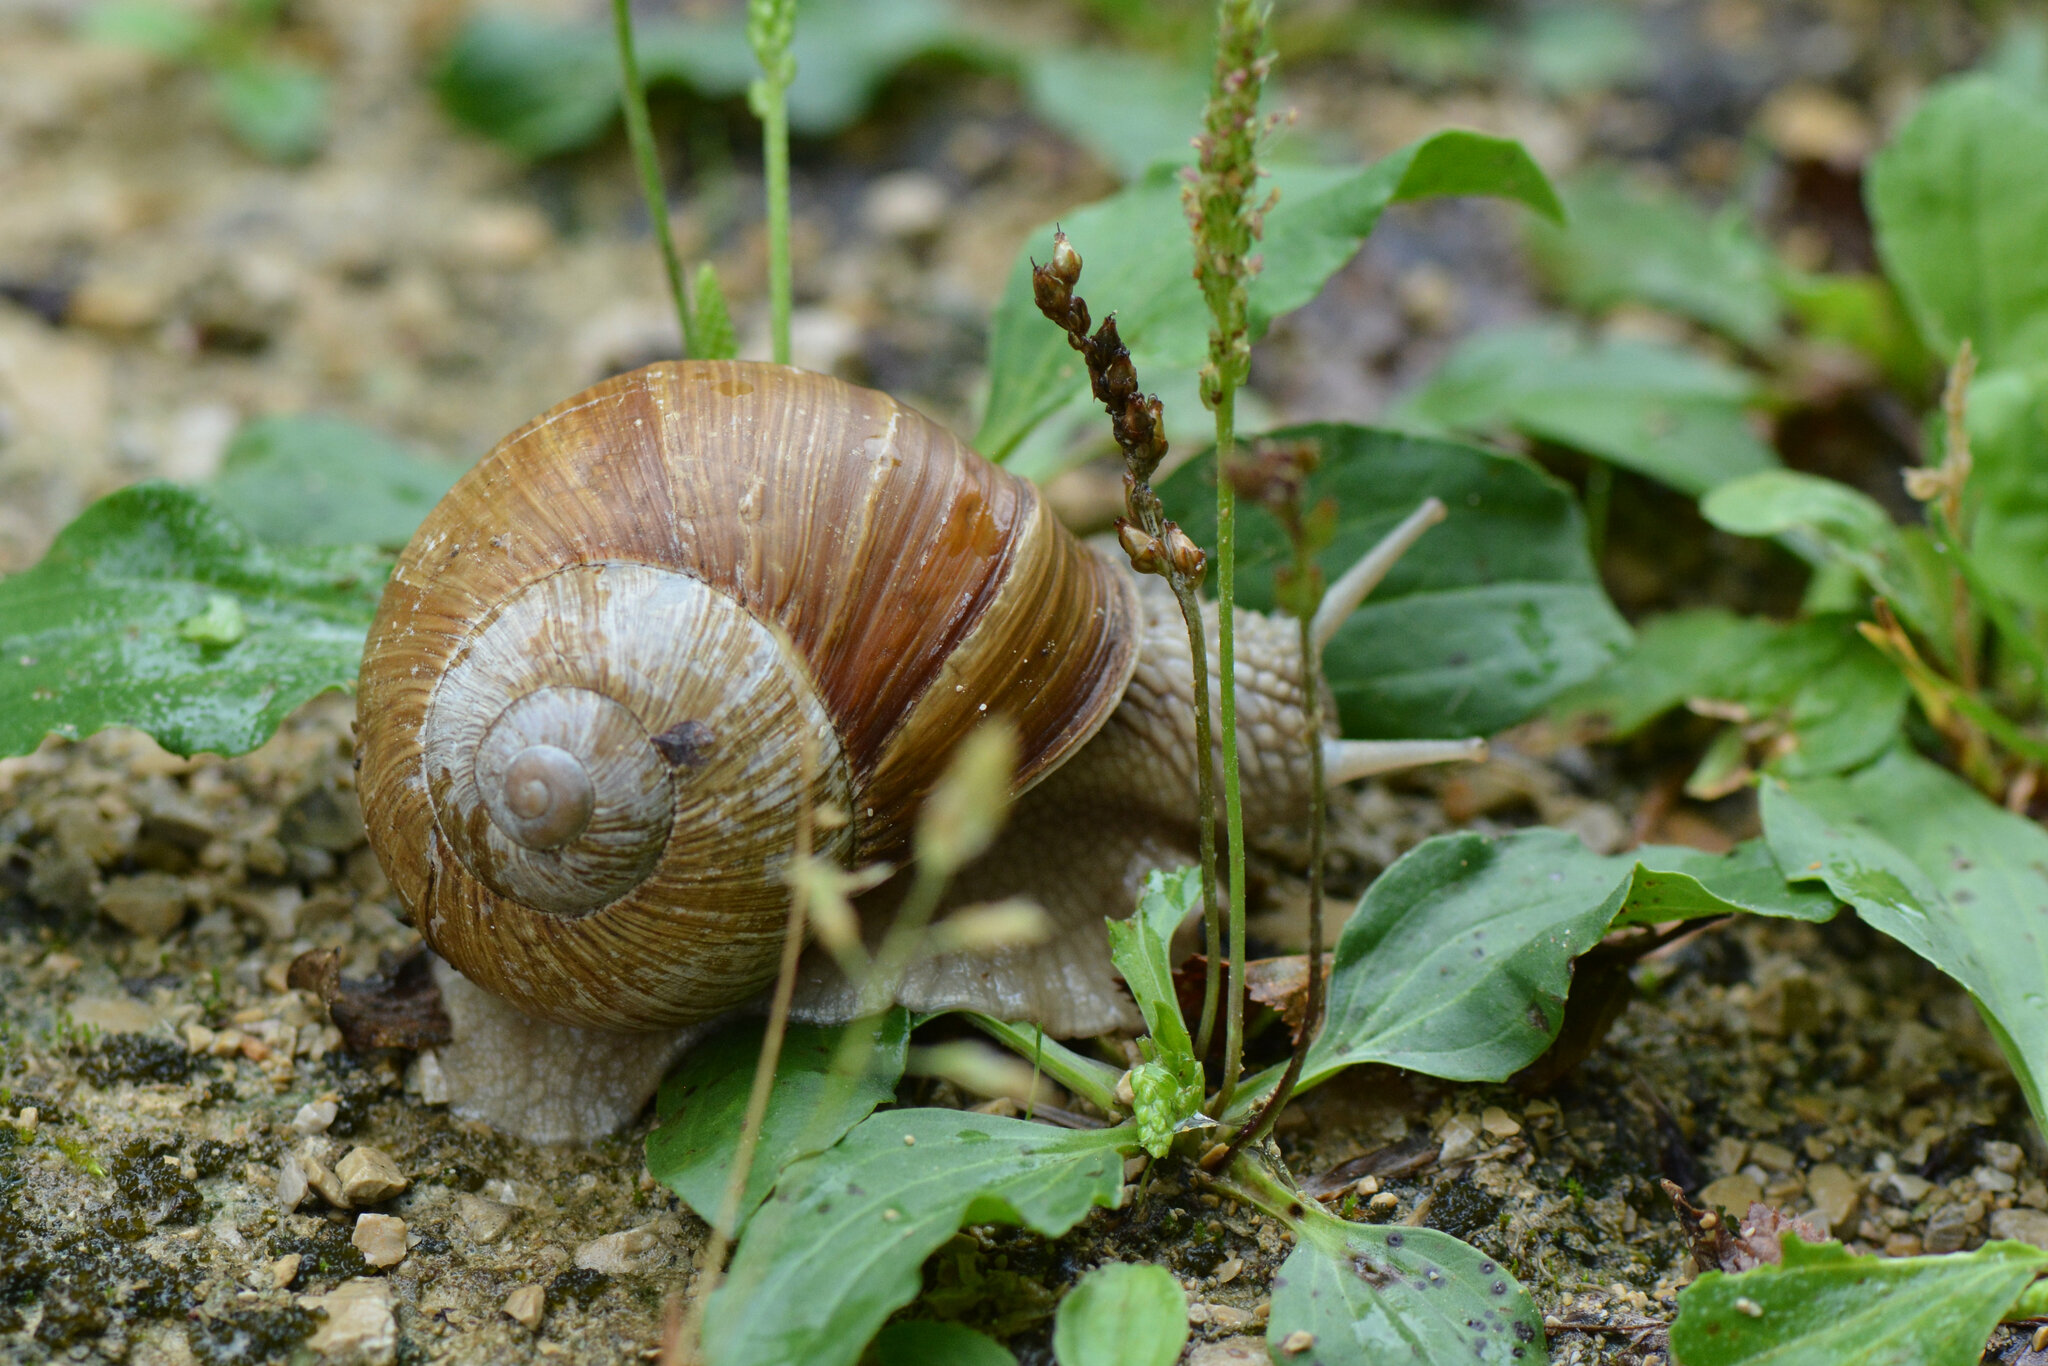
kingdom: Animalia
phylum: Mollusca
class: Gastropoda
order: Stylommatophora
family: Helicidae
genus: Helix
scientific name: Helix pomatia
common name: Roman snail
